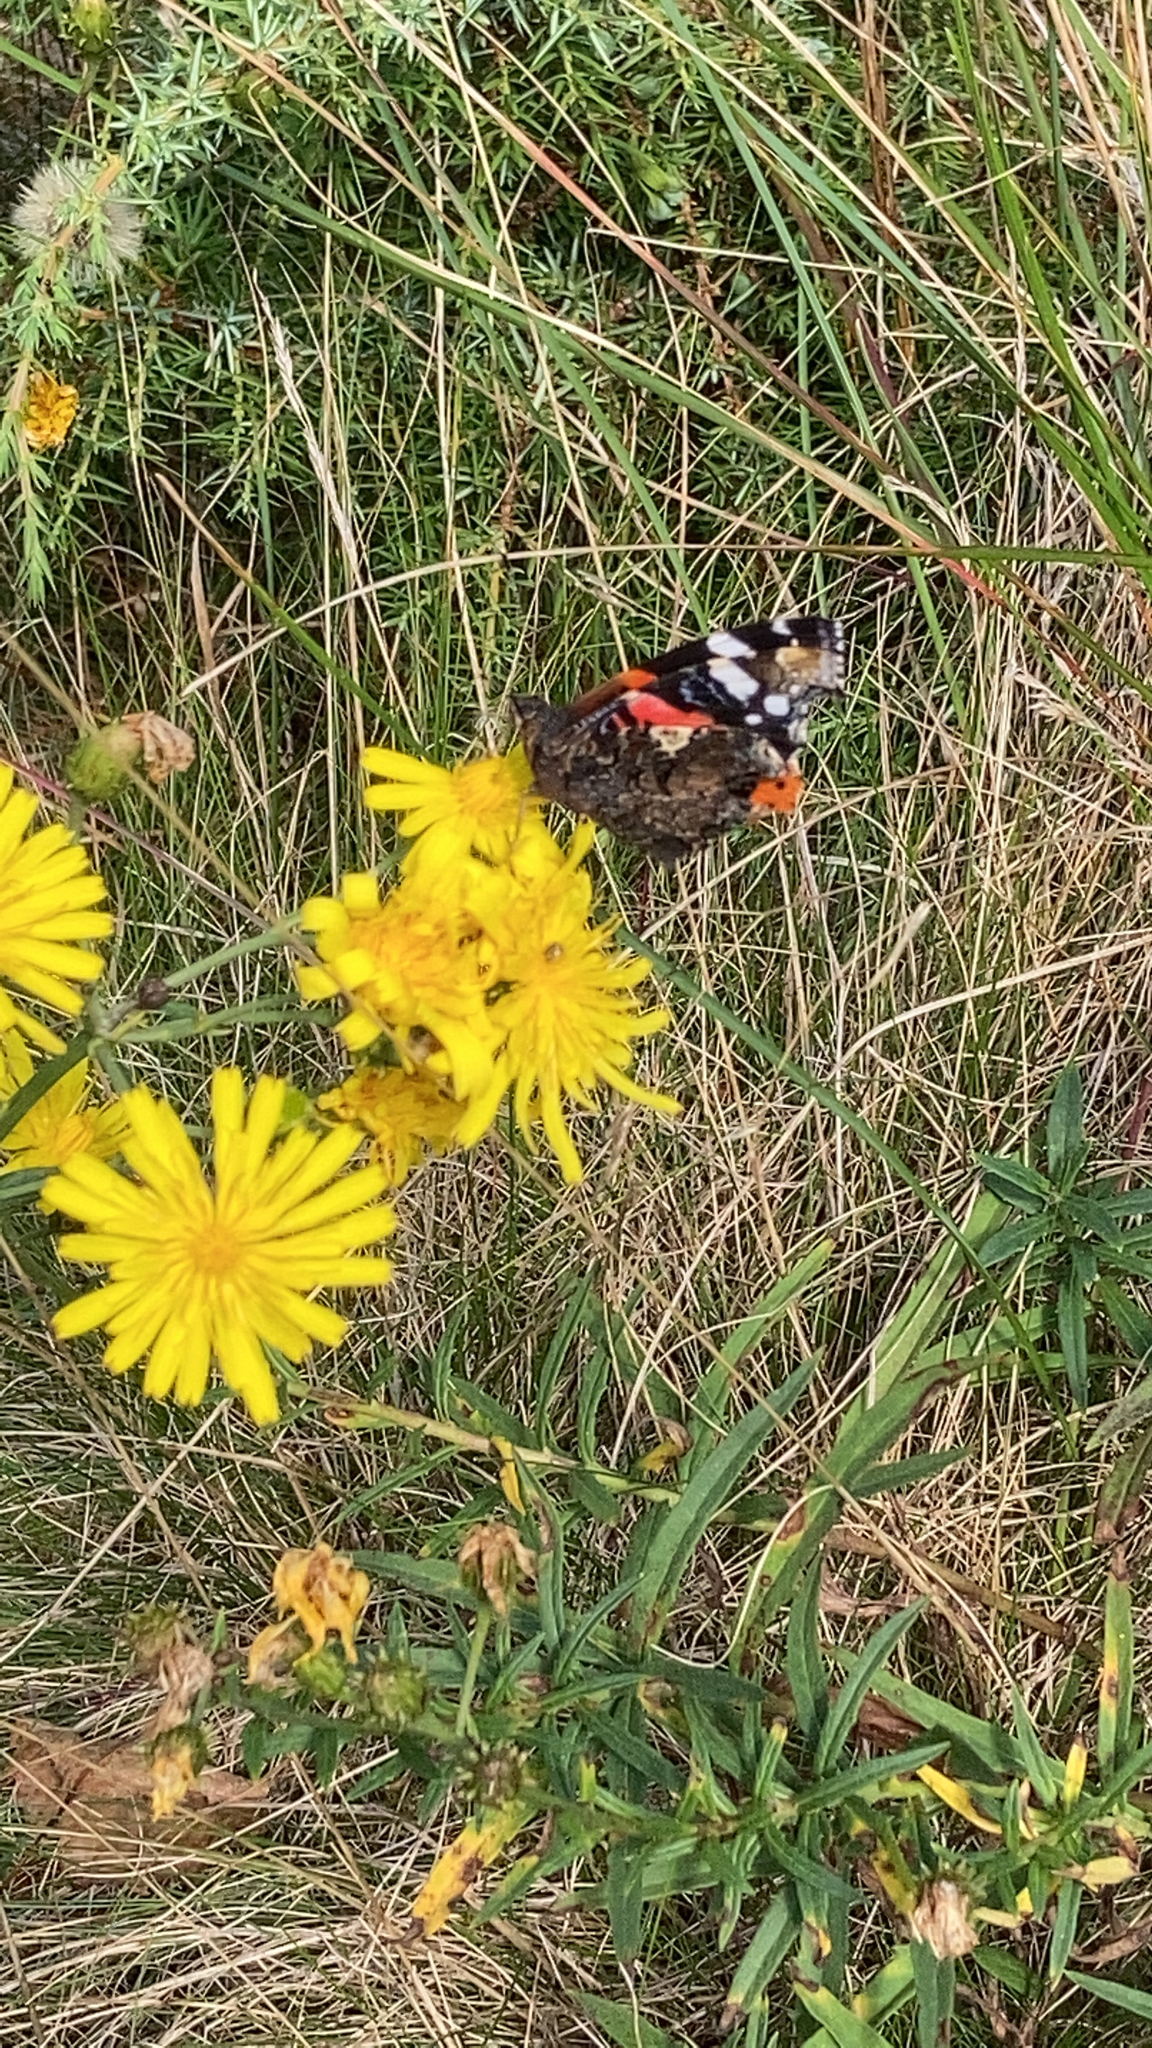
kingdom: Animalia
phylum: Arthropoda
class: Insecta
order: Lepidoptera
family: Nymphalidae
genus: Vanessa
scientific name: Vanessa atalanta
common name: Red admiral
